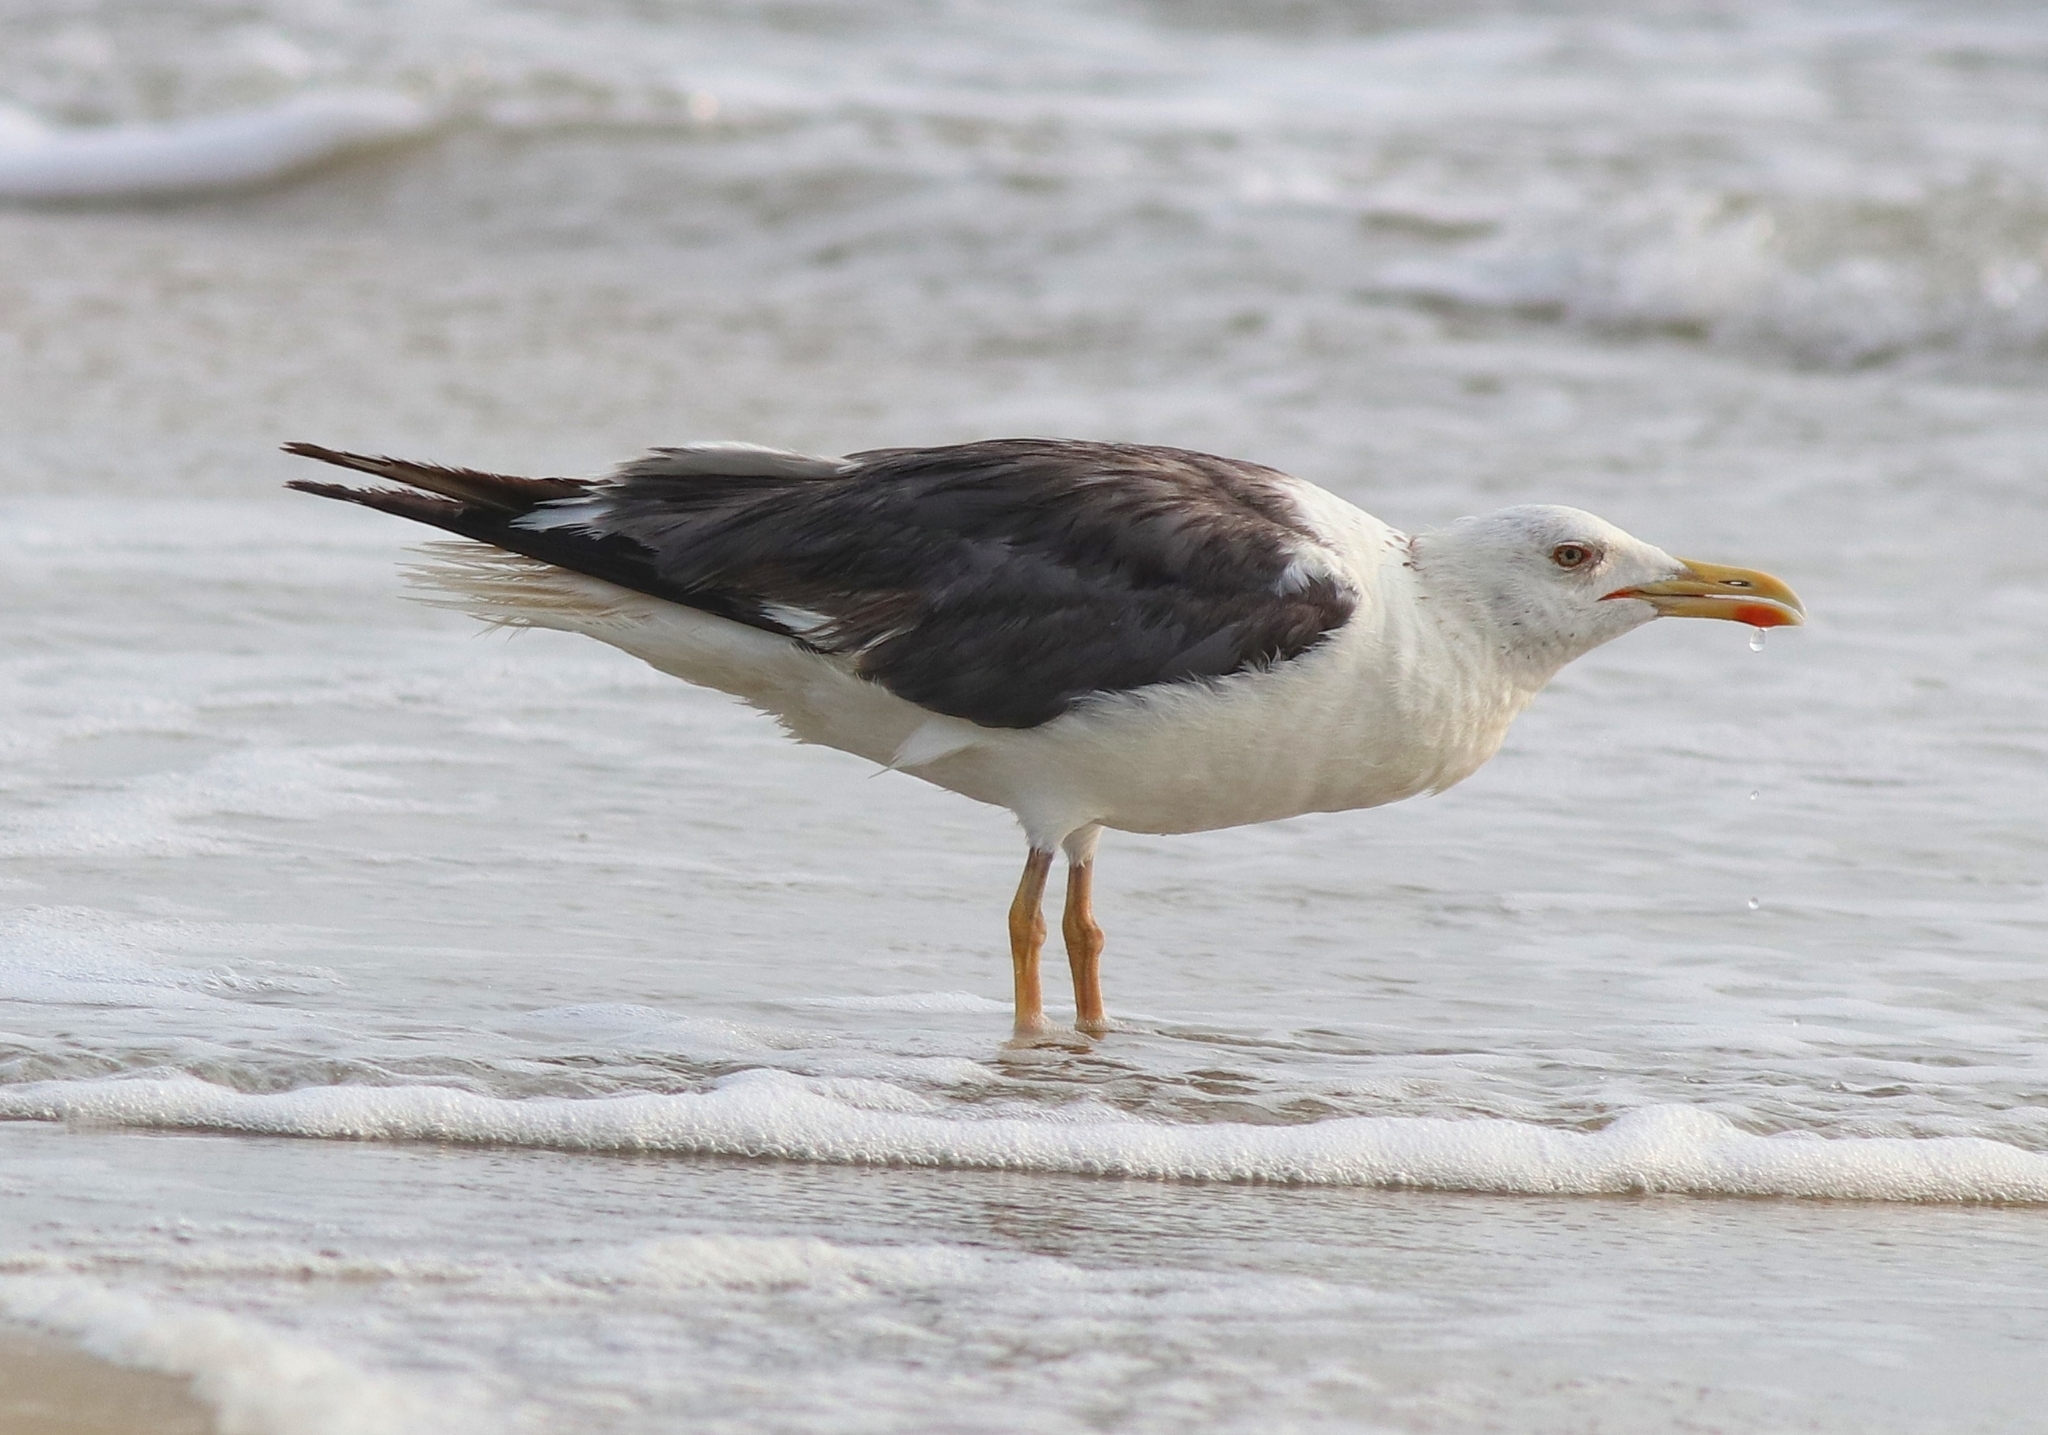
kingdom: Animalia
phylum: Chordata
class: Aves
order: Charadriiformes
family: Laridae
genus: Larus
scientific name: Larus fuscus
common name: Lesser black-backed gull
